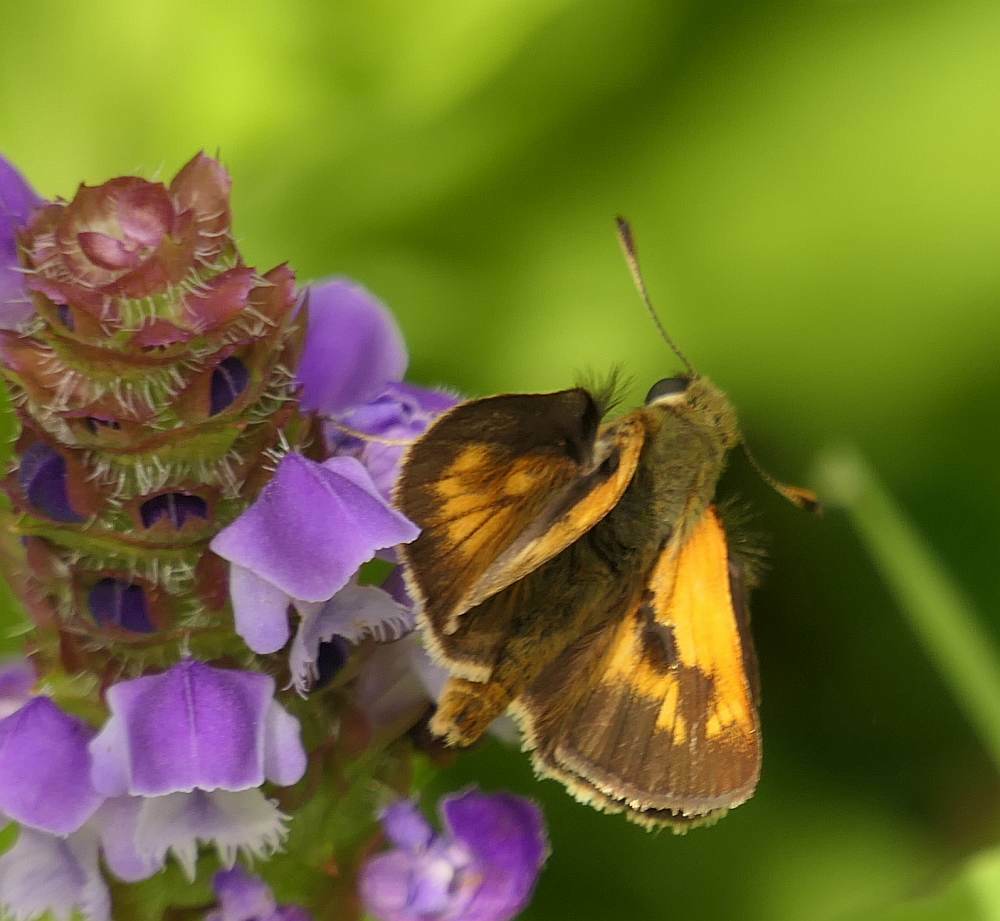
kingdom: Animalia
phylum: Arthropoda
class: Insecta
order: Lepidoptera
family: Hesperiidae
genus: Polites
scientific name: Polites mystic
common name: Long dash
